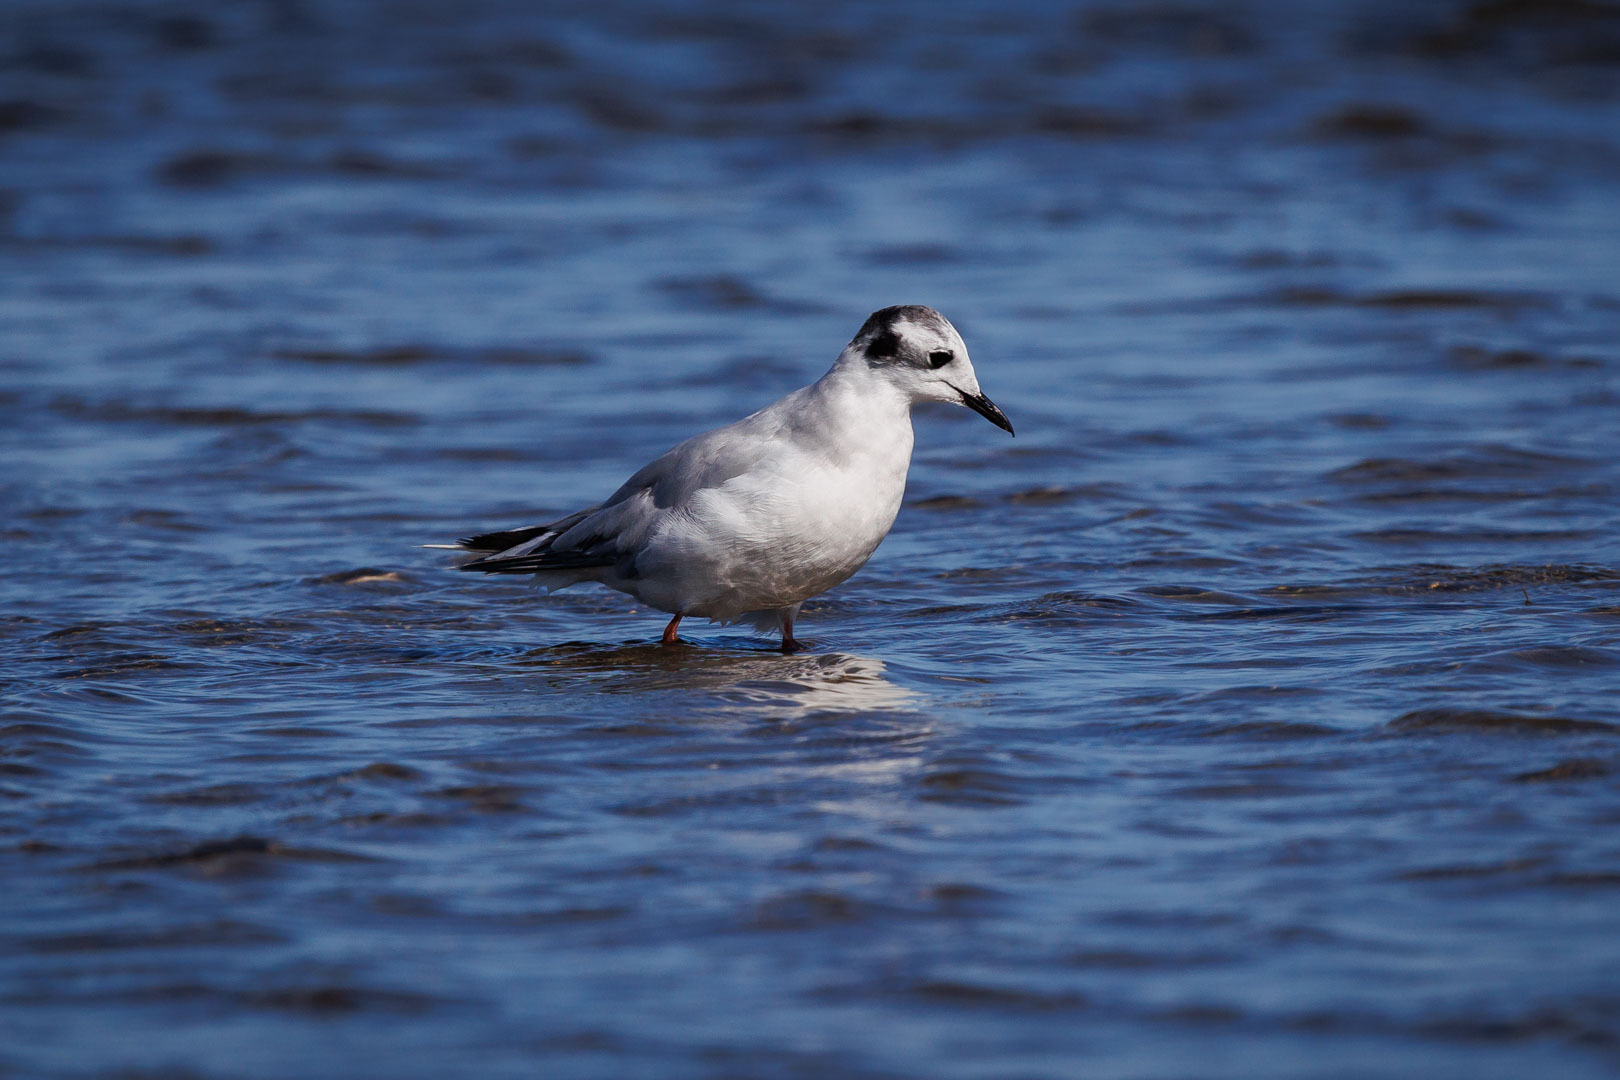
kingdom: Animalia
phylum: Chordata
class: Aves
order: Charadriiformes
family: Laridae
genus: Hydrocoloeus
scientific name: Hydrocoloeus minutus
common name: Little gull
